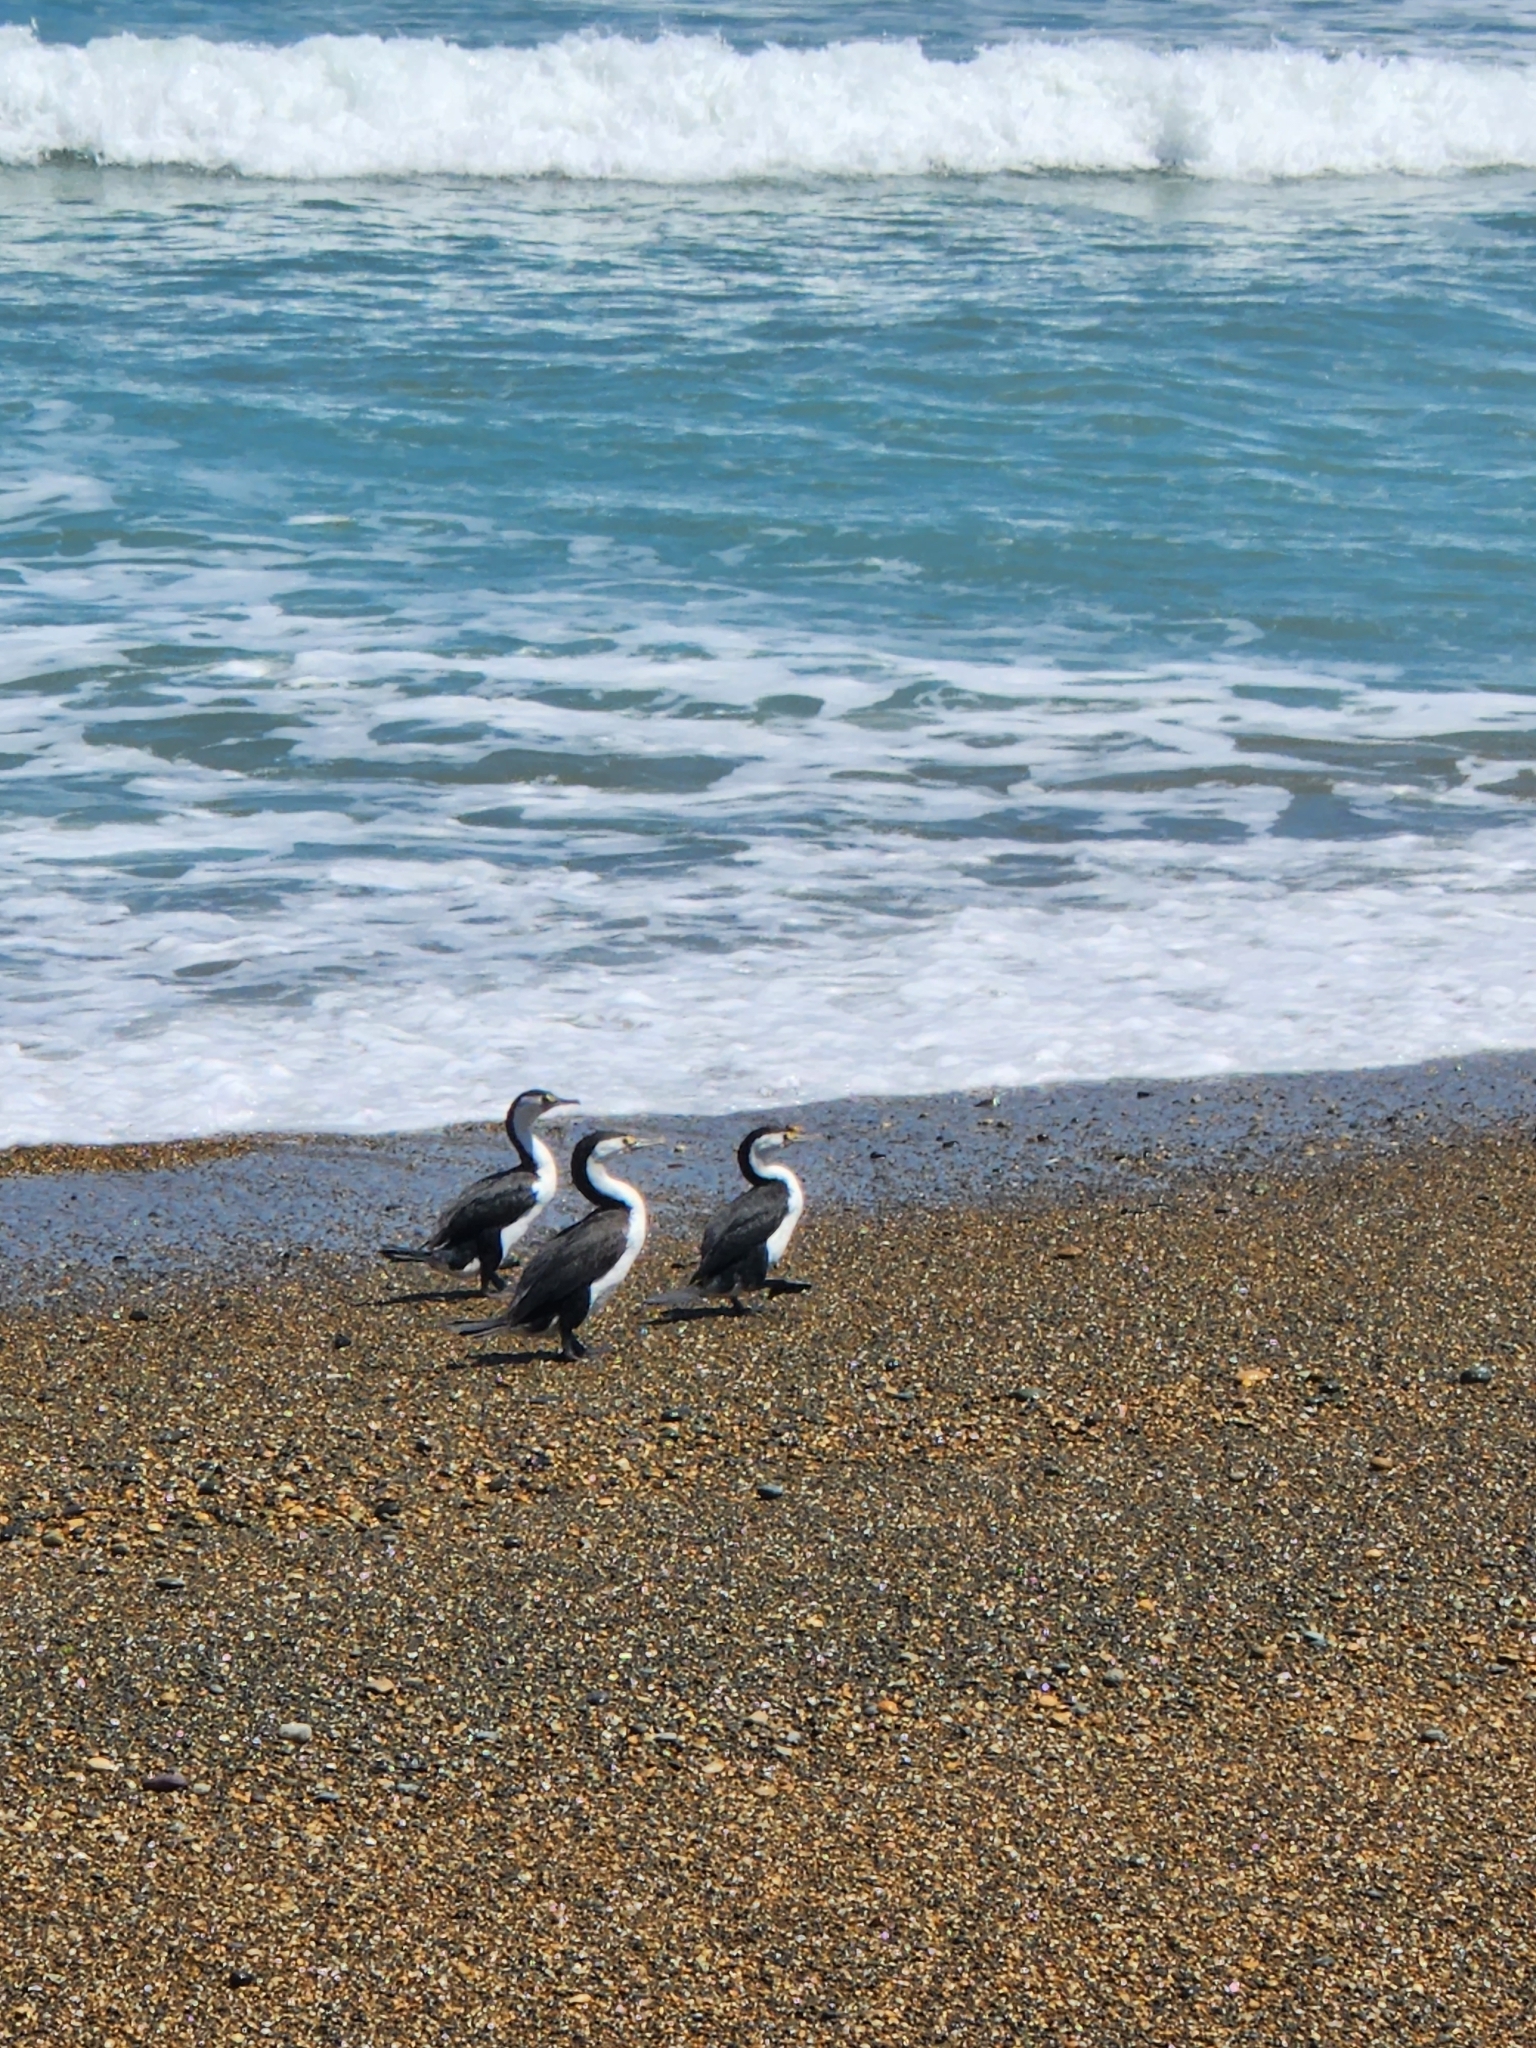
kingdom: Animalia
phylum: Chordata
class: Aves
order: Suliformes
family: Phalacrocoracidae
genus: Phalacrocorax
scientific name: Phalacrocorax varius
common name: Pied cormorant
